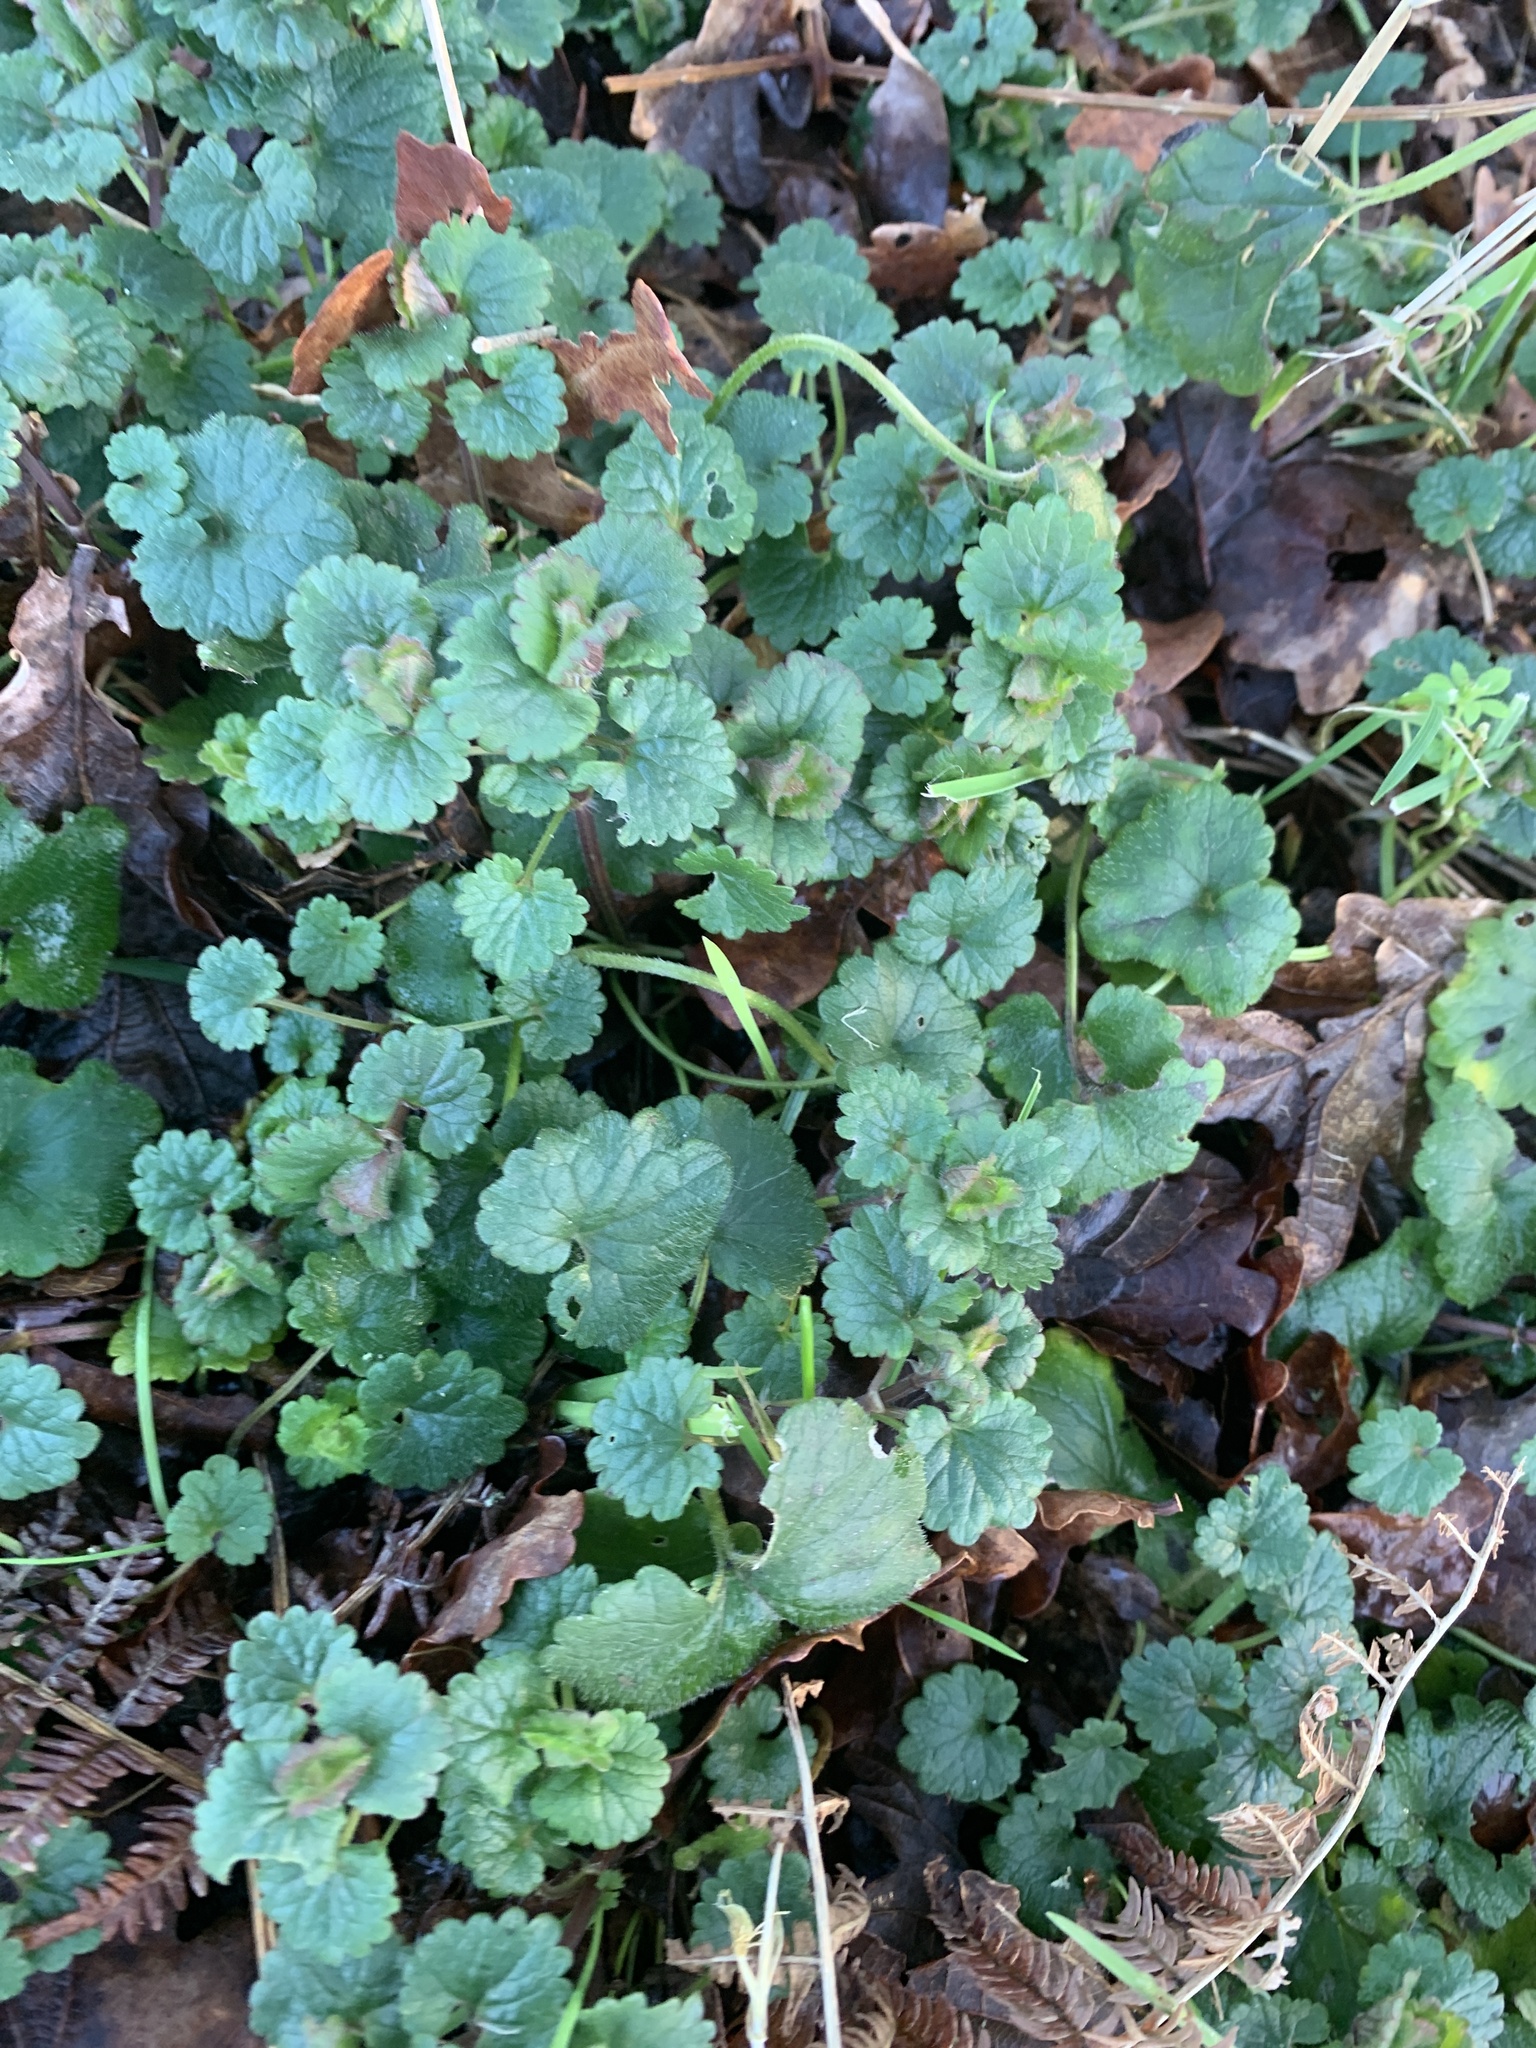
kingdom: Plantae
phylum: Tracheophyta
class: Magnoliopsida
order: Lamiales
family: Lamiaceae
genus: Glechoma
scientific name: Glechoma hederacea
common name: Ground ivy
